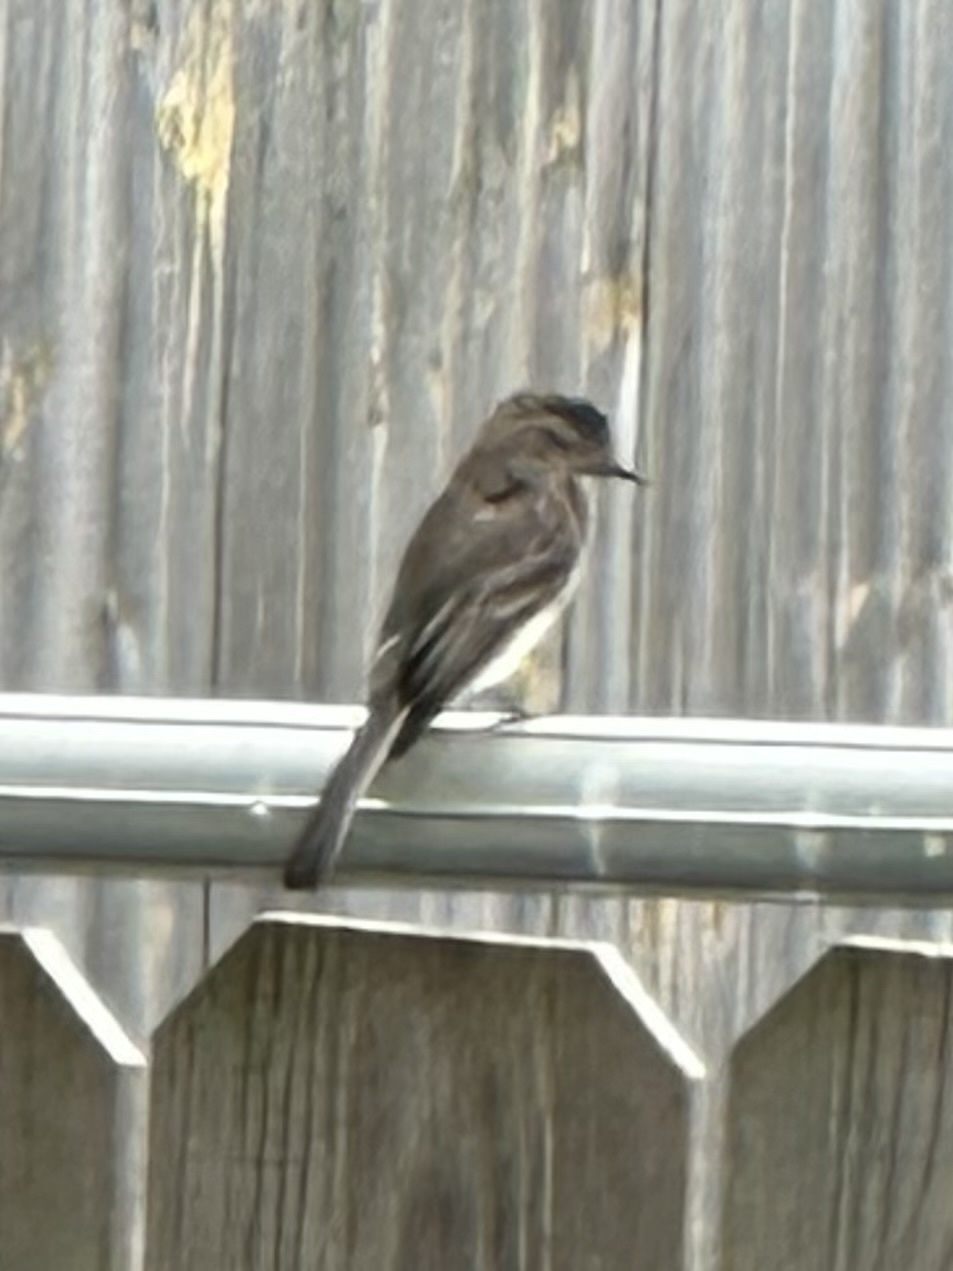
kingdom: Animalia
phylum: Chordata
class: Aves
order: Passeriformes
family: Tyrannidae
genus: Sayornis
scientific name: Sayornis phoebe
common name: Eastern phoebe
